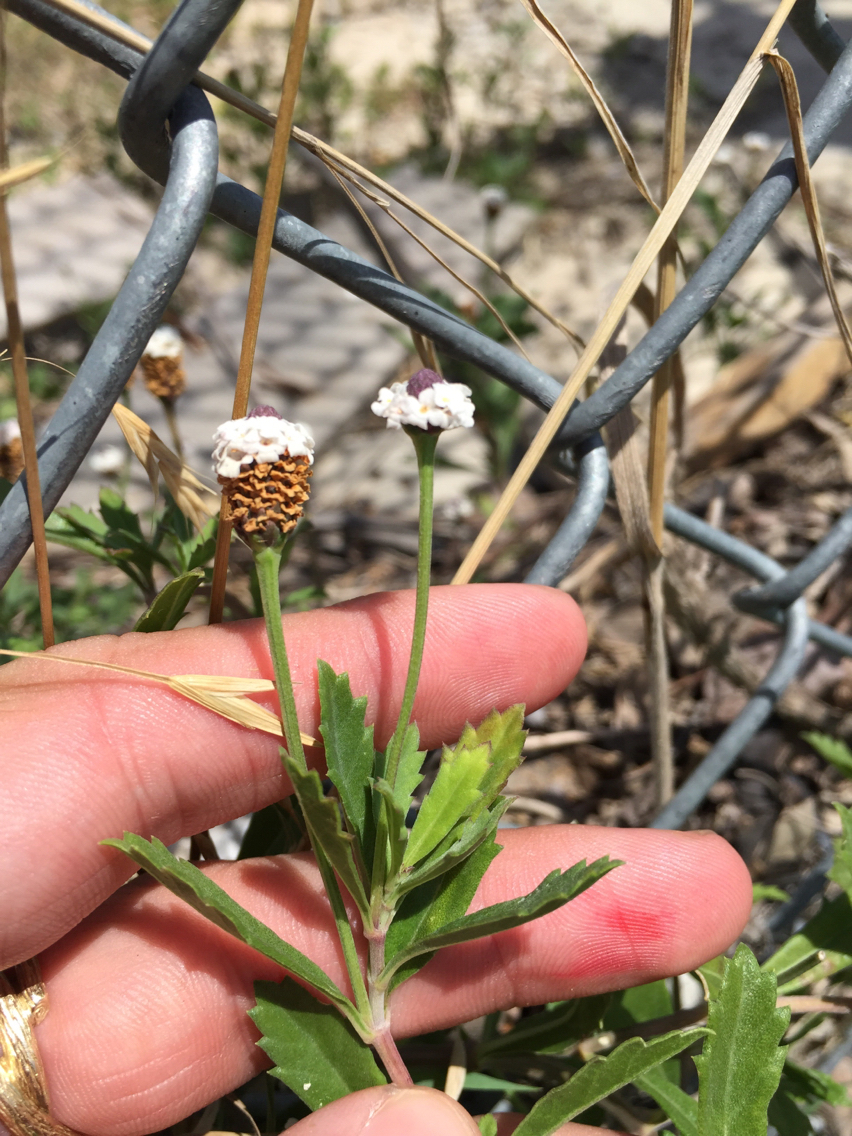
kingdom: Plantae
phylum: Tracheophyta
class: Magnoliopsida
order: Lamiales
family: Verbenaceae
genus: Phyla
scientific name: Phyla nodiflora
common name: Frogfruit
